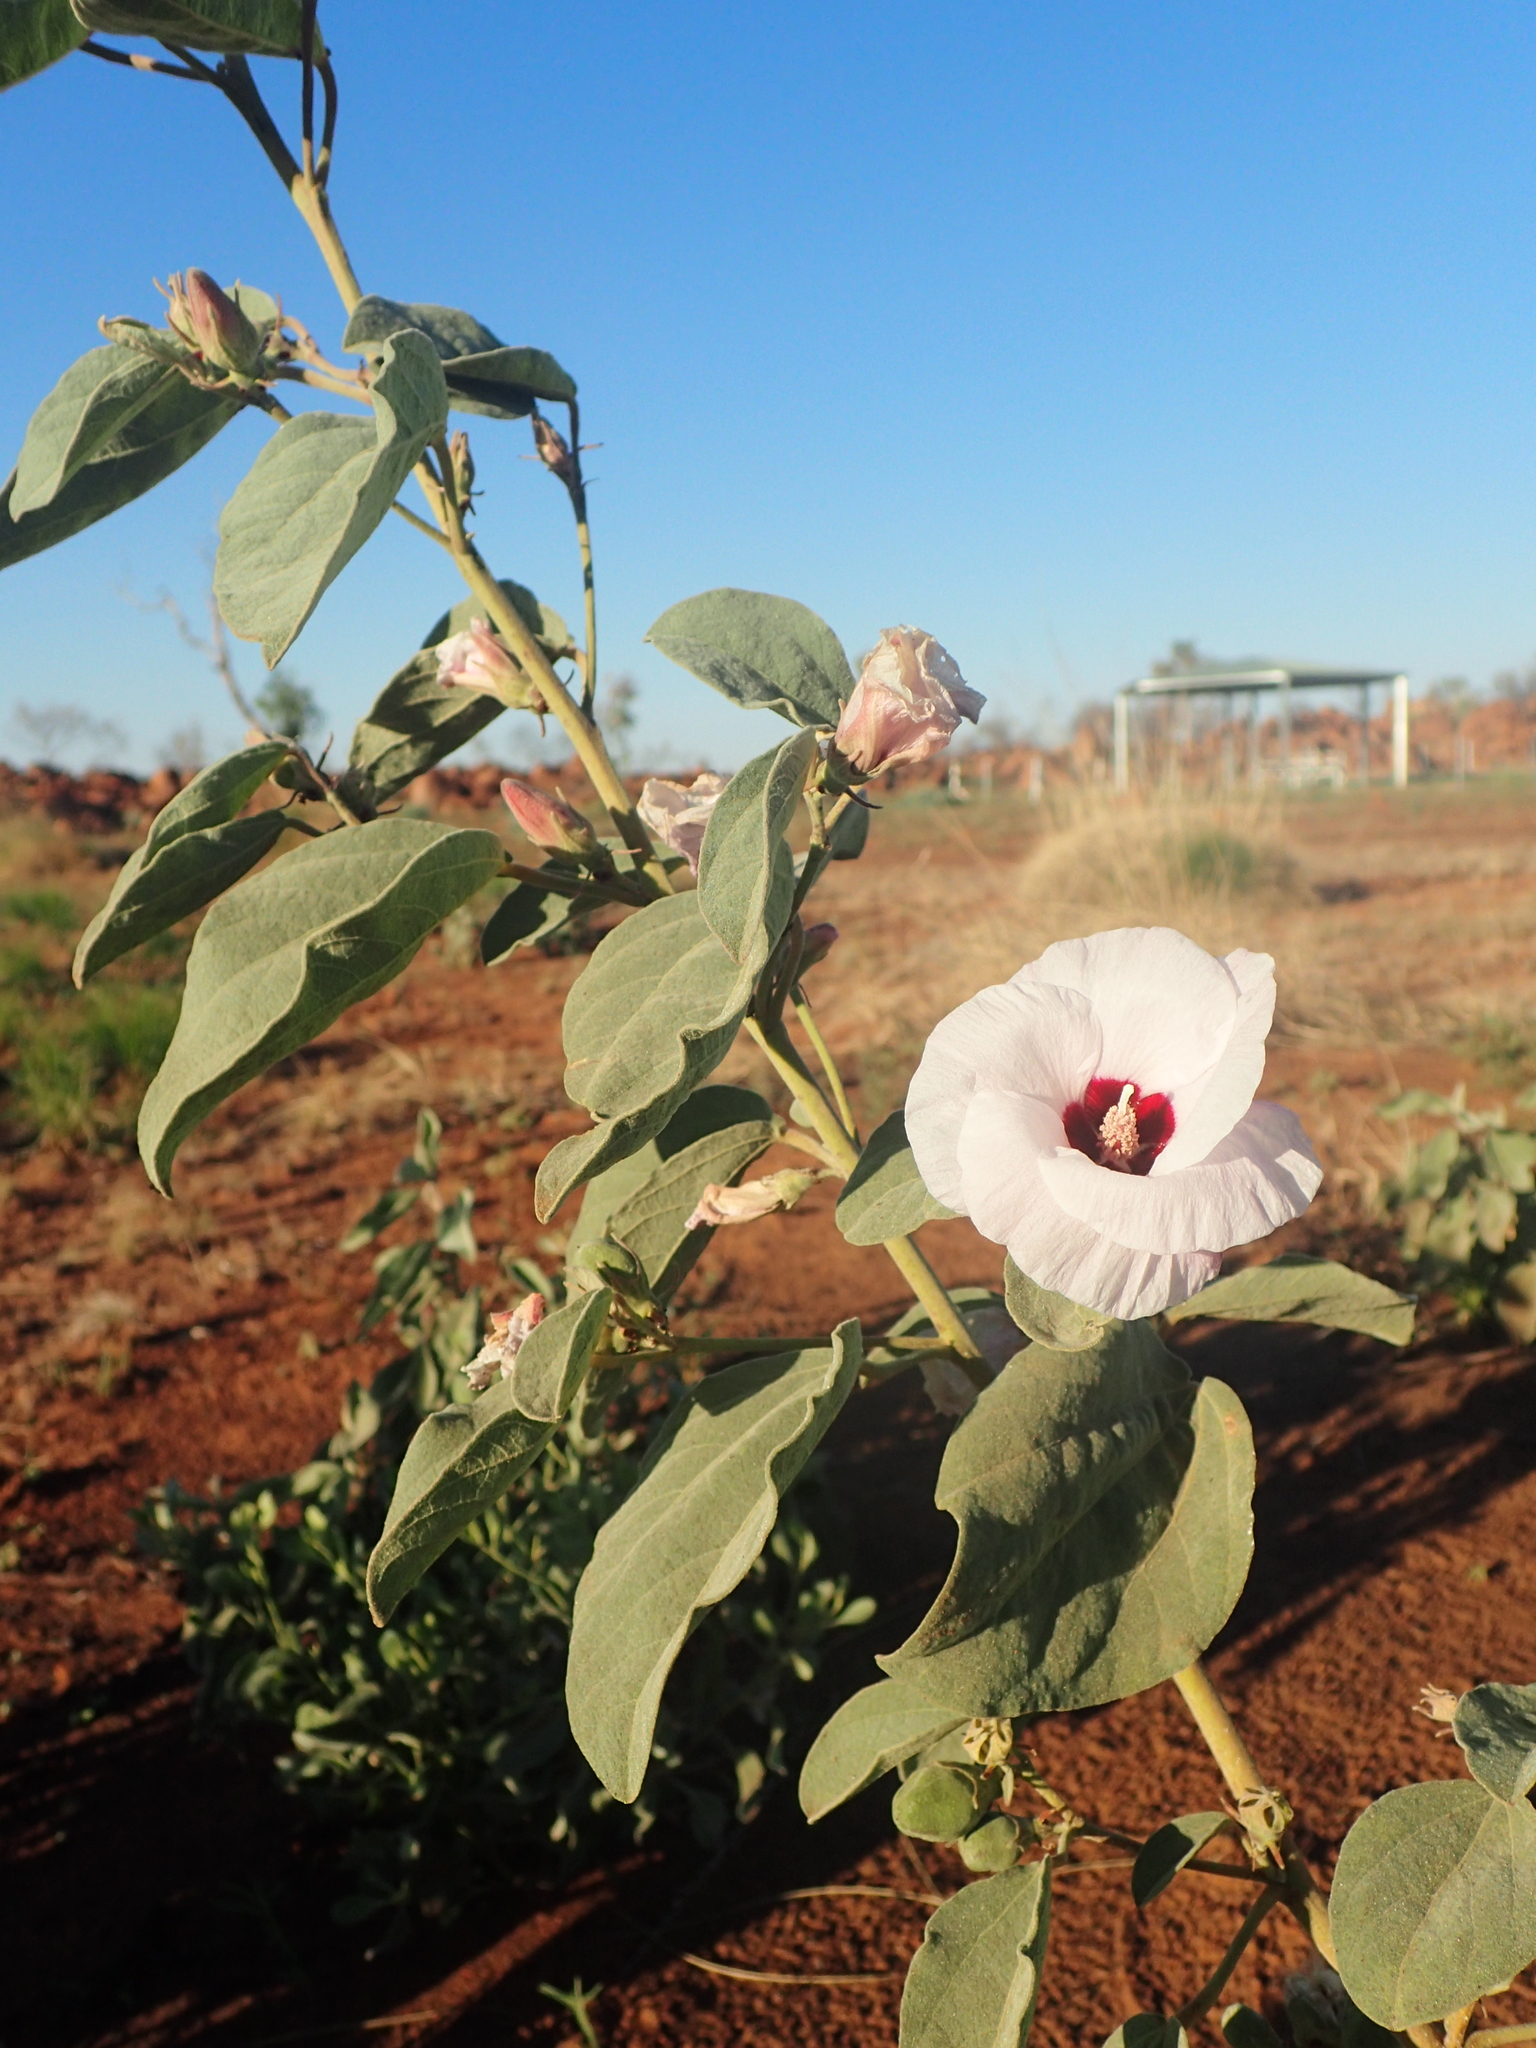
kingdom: Plantae
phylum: Tracheophyta
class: Magnoliopsida
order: Malvales
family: Malvaceae
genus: Cienfuegosia
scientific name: Cienfuegosia australis
